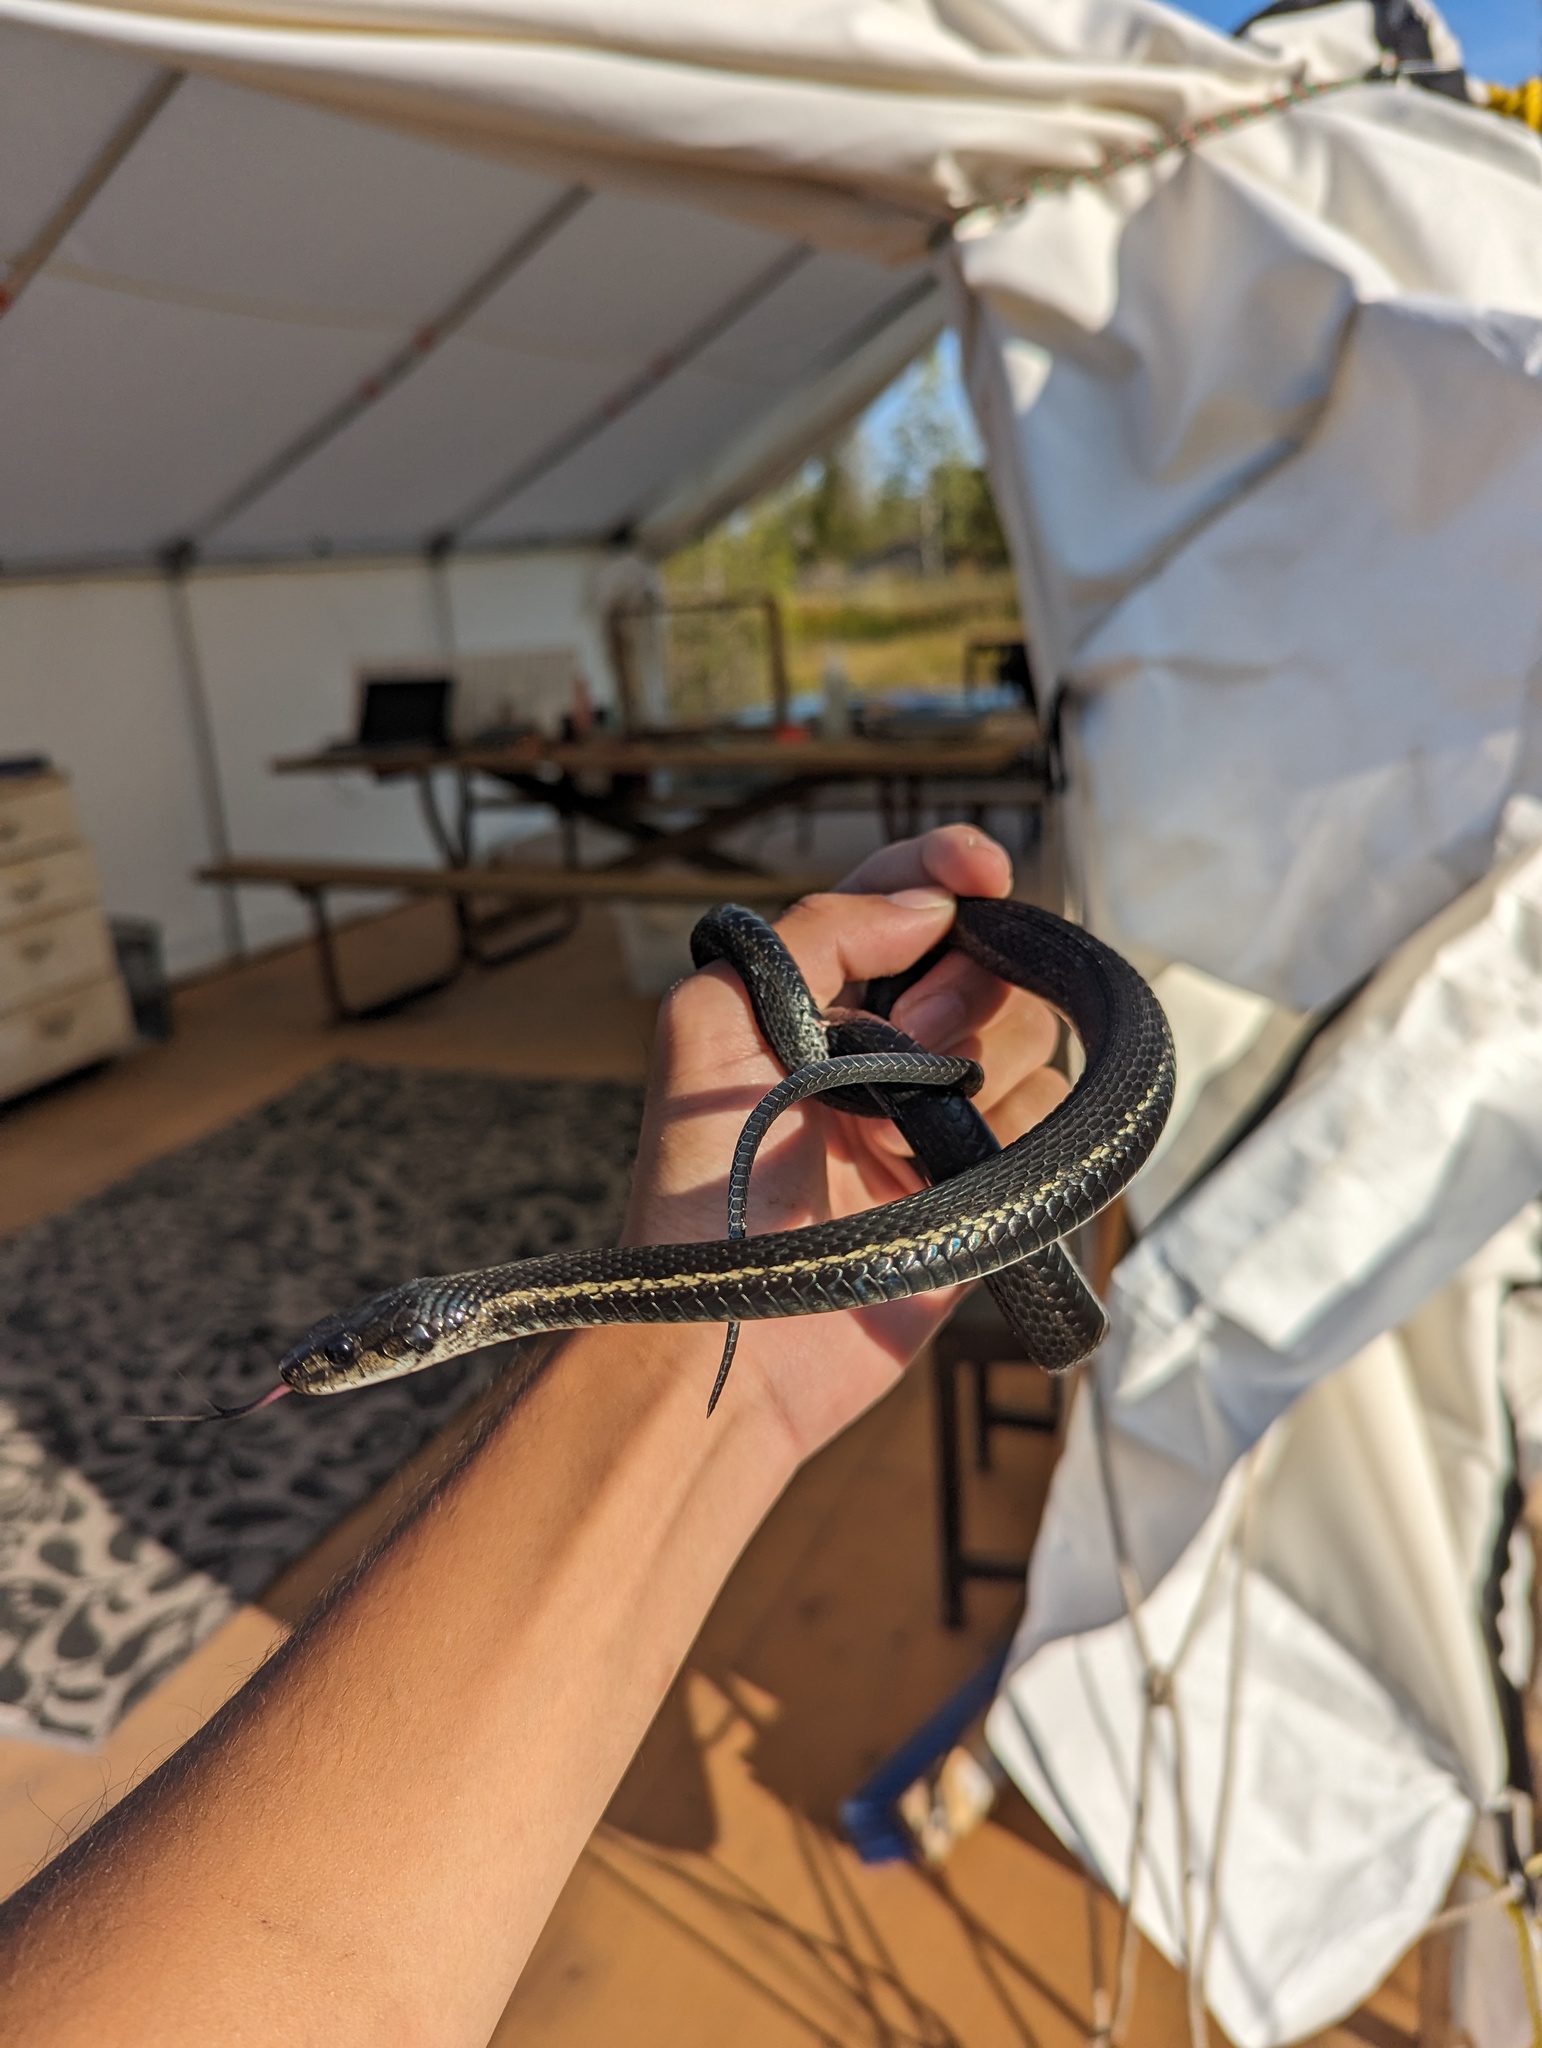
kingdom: Animalia
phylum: Chordata
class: Squamata
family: Colubridae
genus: Thamnophis
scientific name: Thamnophis sirtalis
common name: Common garter snake
